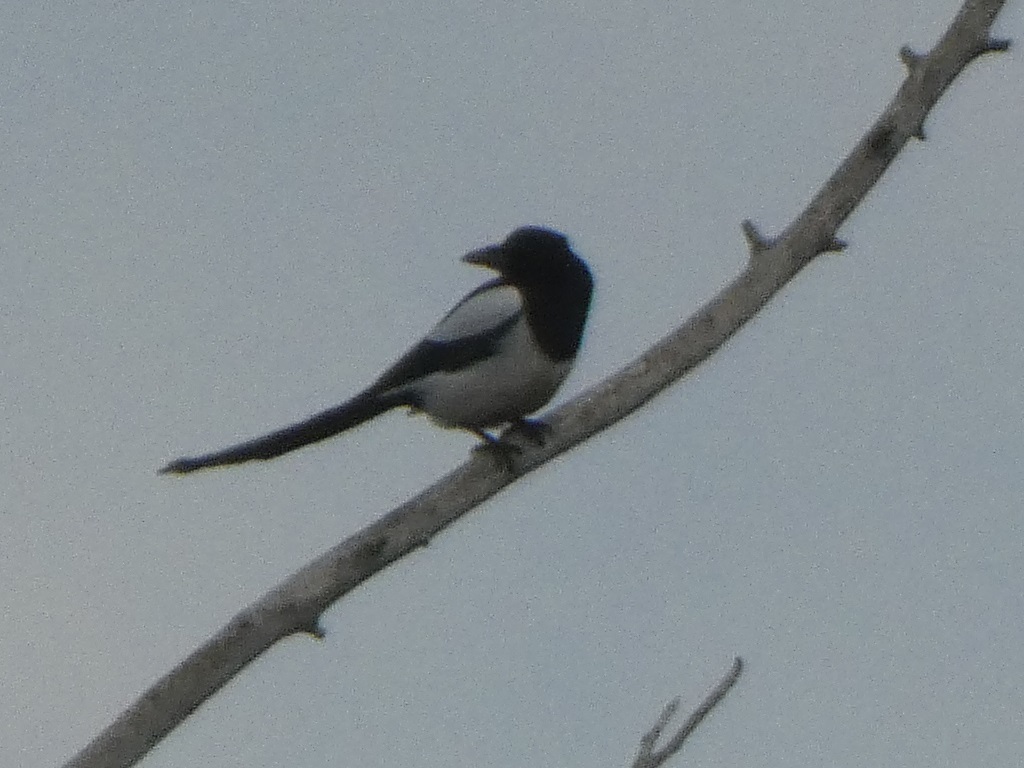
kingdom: Animalia
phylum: Chordata
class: Aves
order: Passeriformes
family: Corvidae
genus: Pica
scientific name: Pica pica
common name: Eurasian magpie
